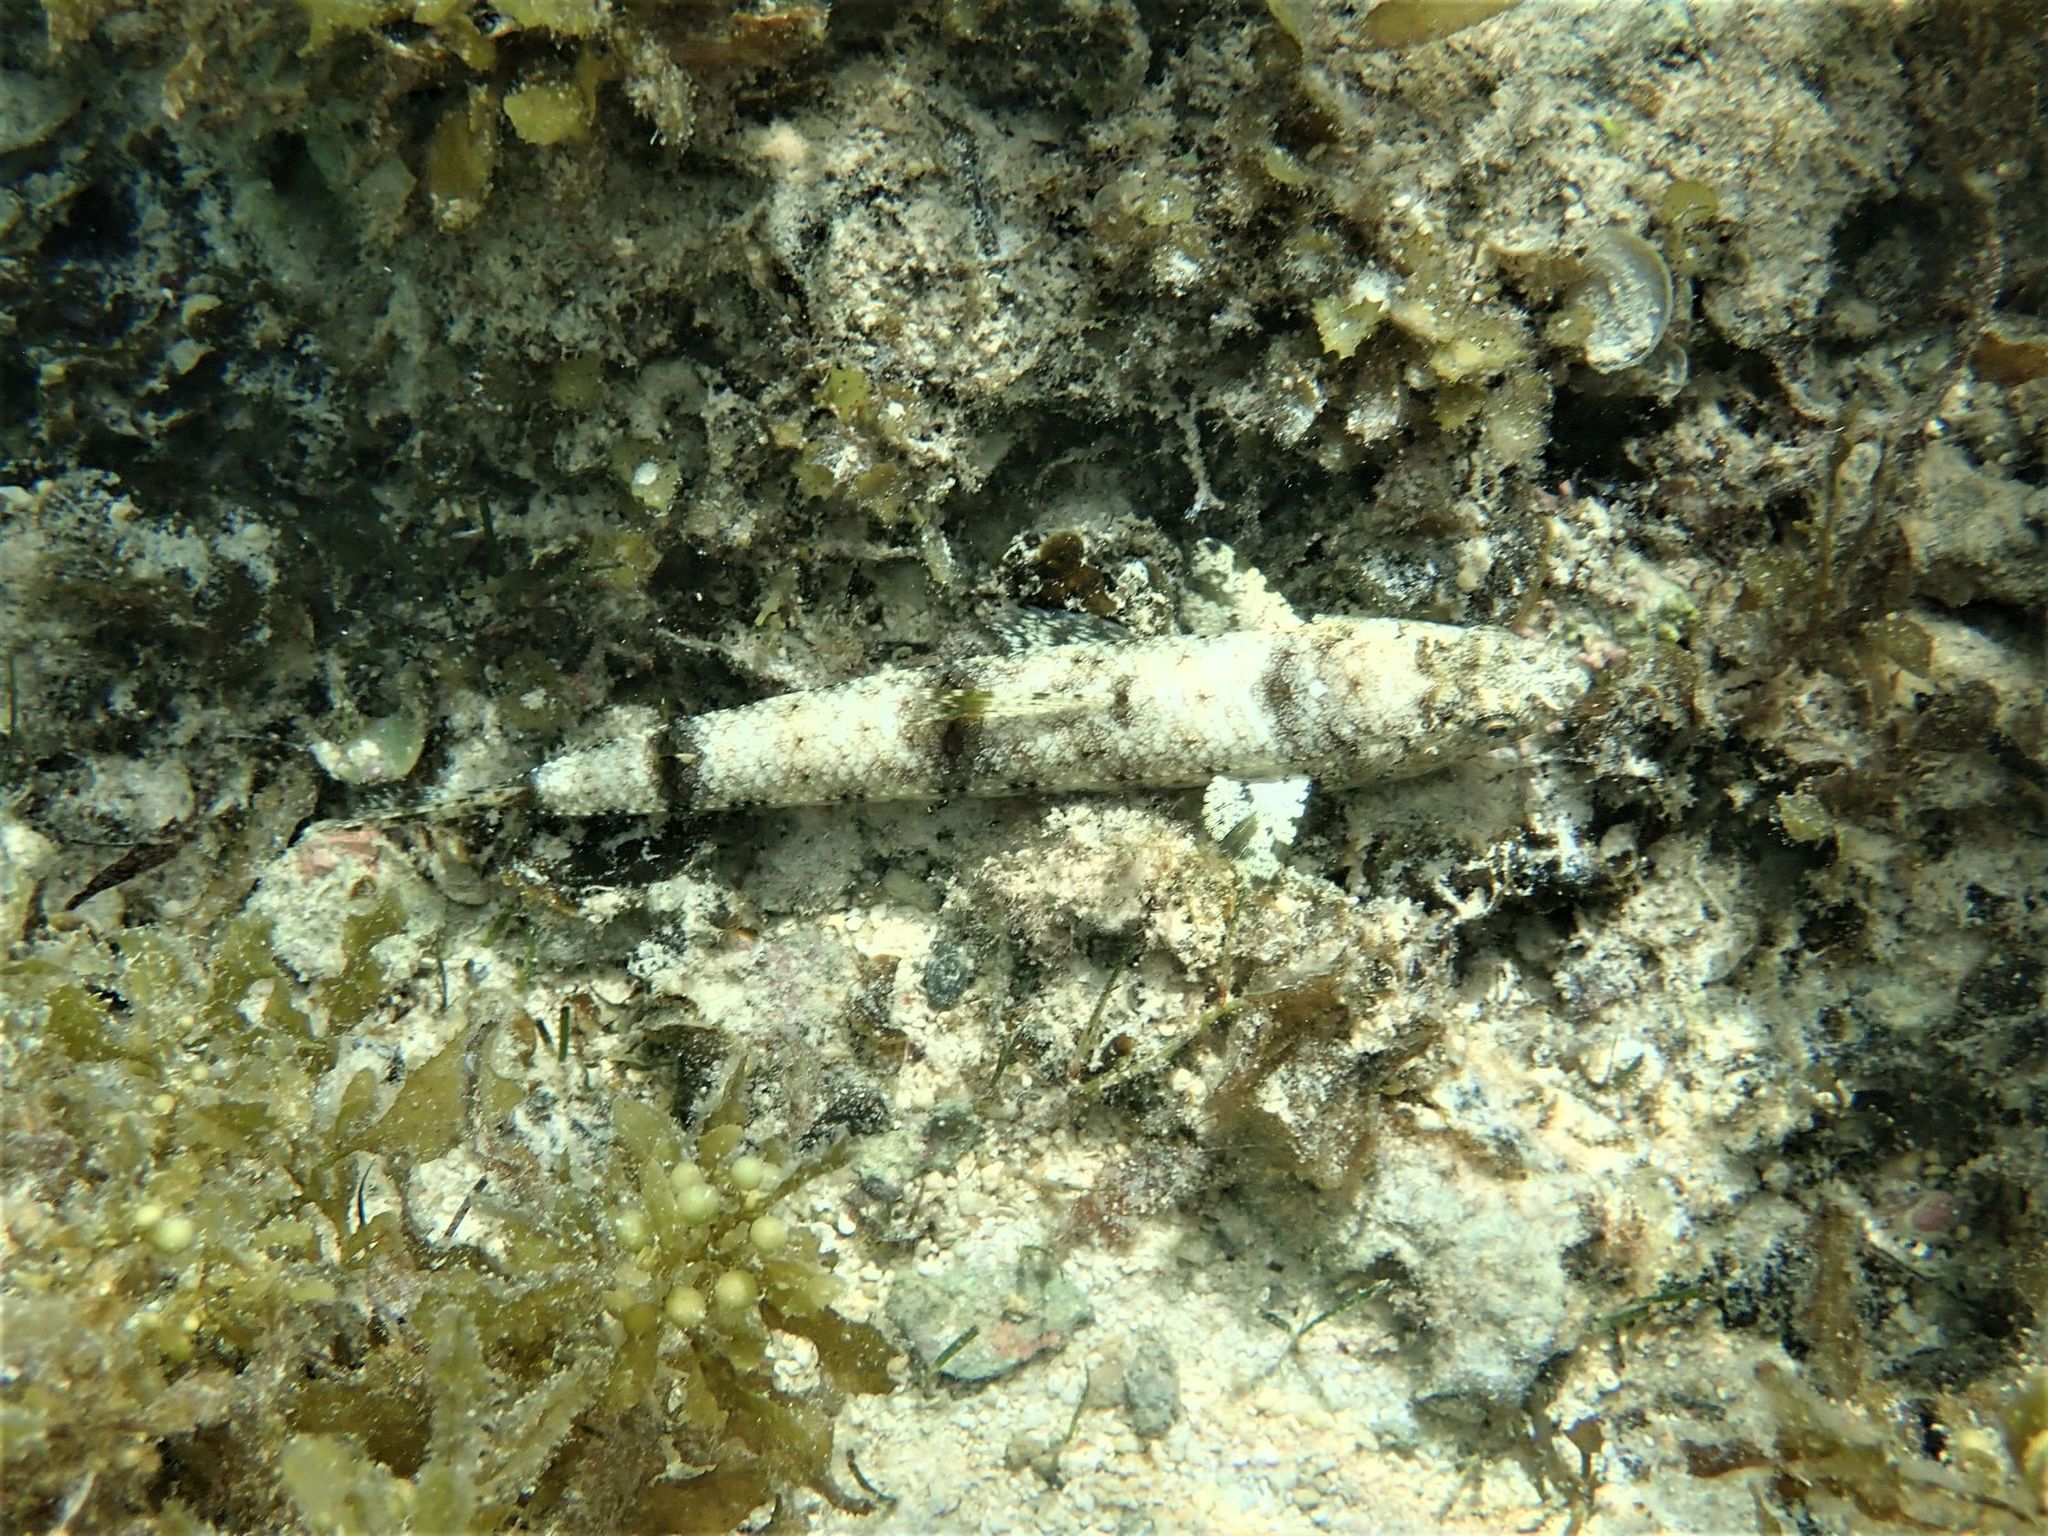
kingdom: Animalia
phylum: Chordata
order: Aulopiformes
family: Synodontidae
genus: Saurida
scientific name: Saurida nebulosa
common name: Nebulous lizardfish
